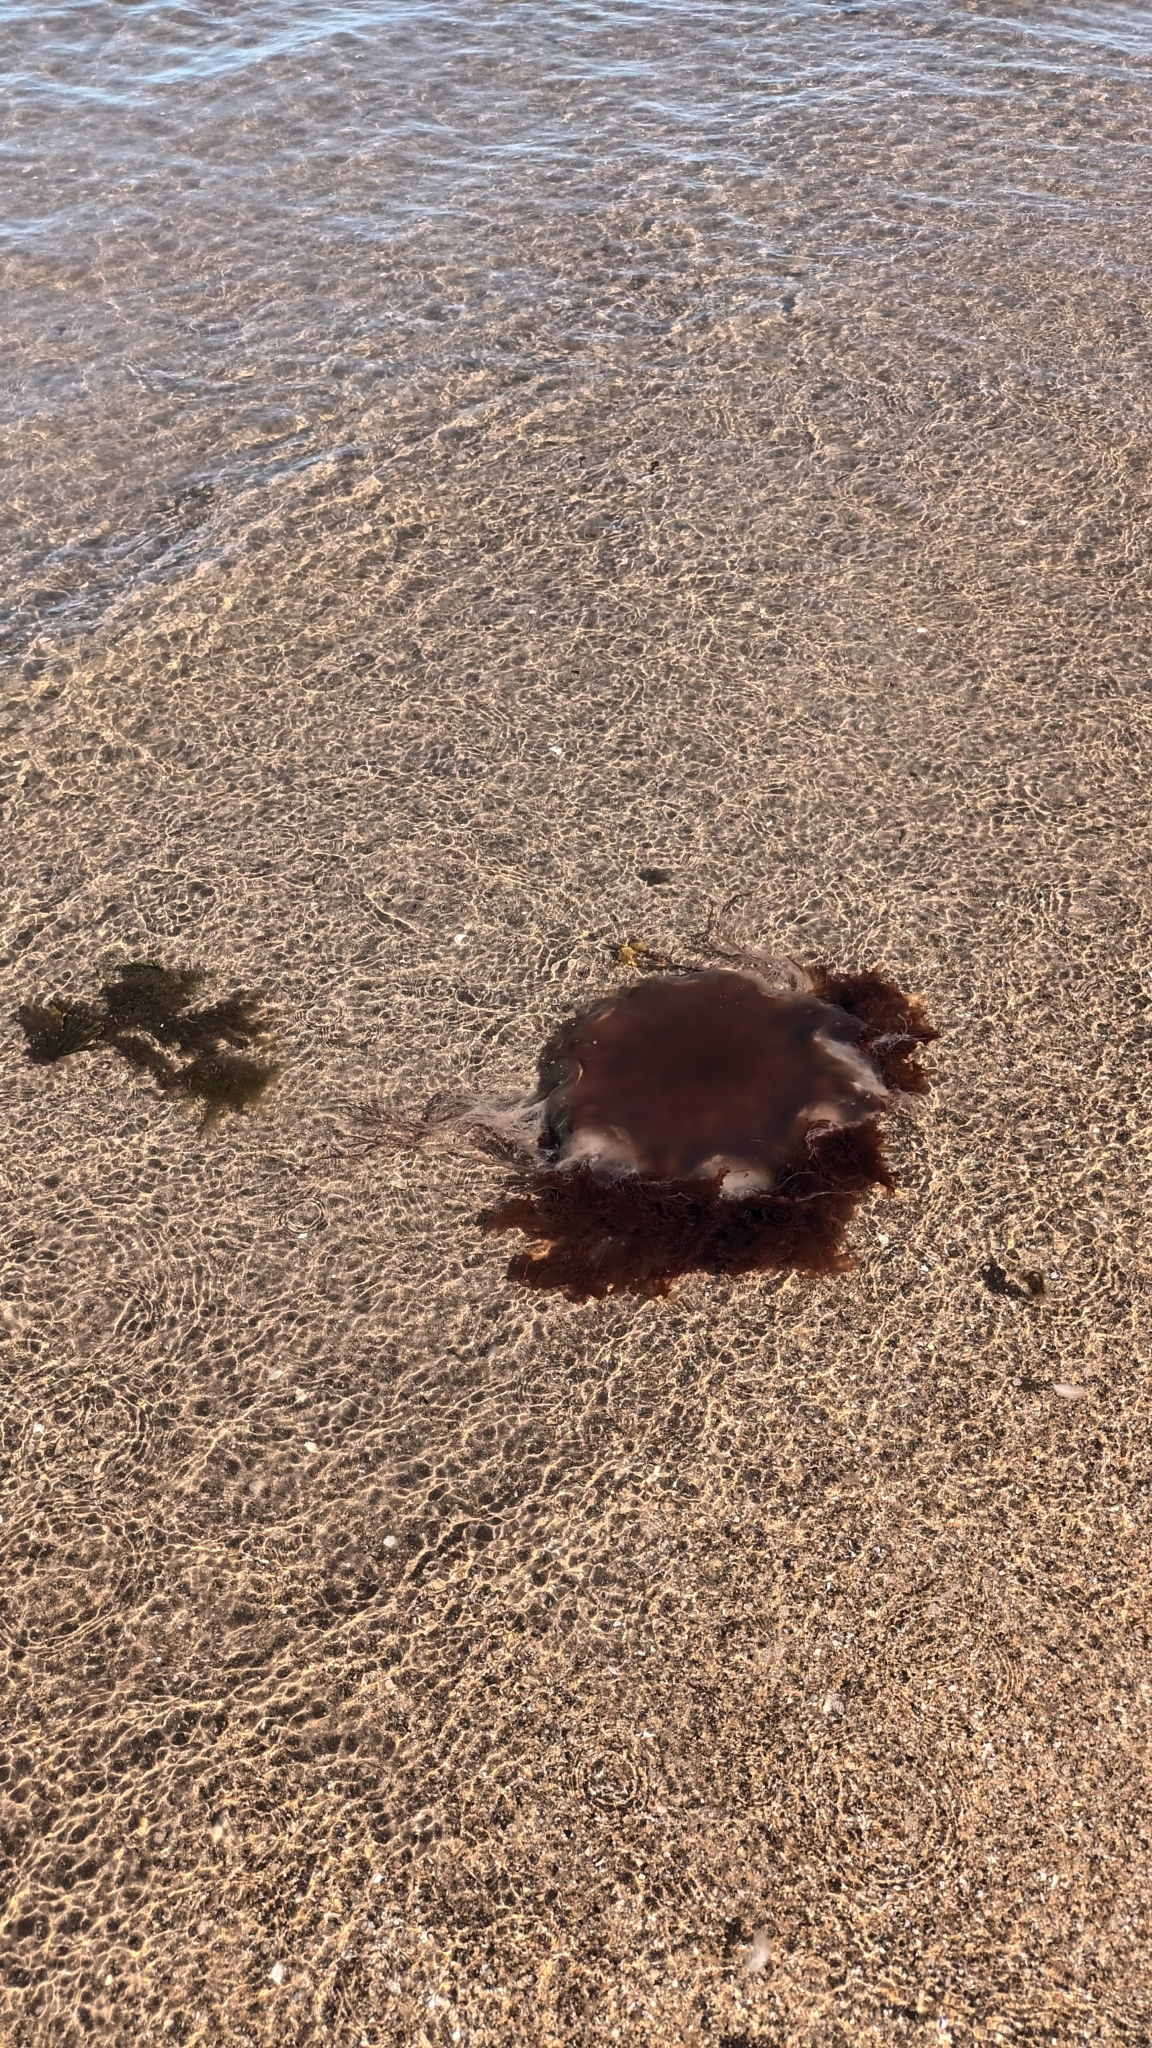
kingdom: Animalia
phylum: Cnidaria
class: Scyphozoa
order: Semaeostomeae
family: Cyaneidae
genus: Cyanea
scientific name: Cyanea capillata
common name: Lion's mane jellyfish
